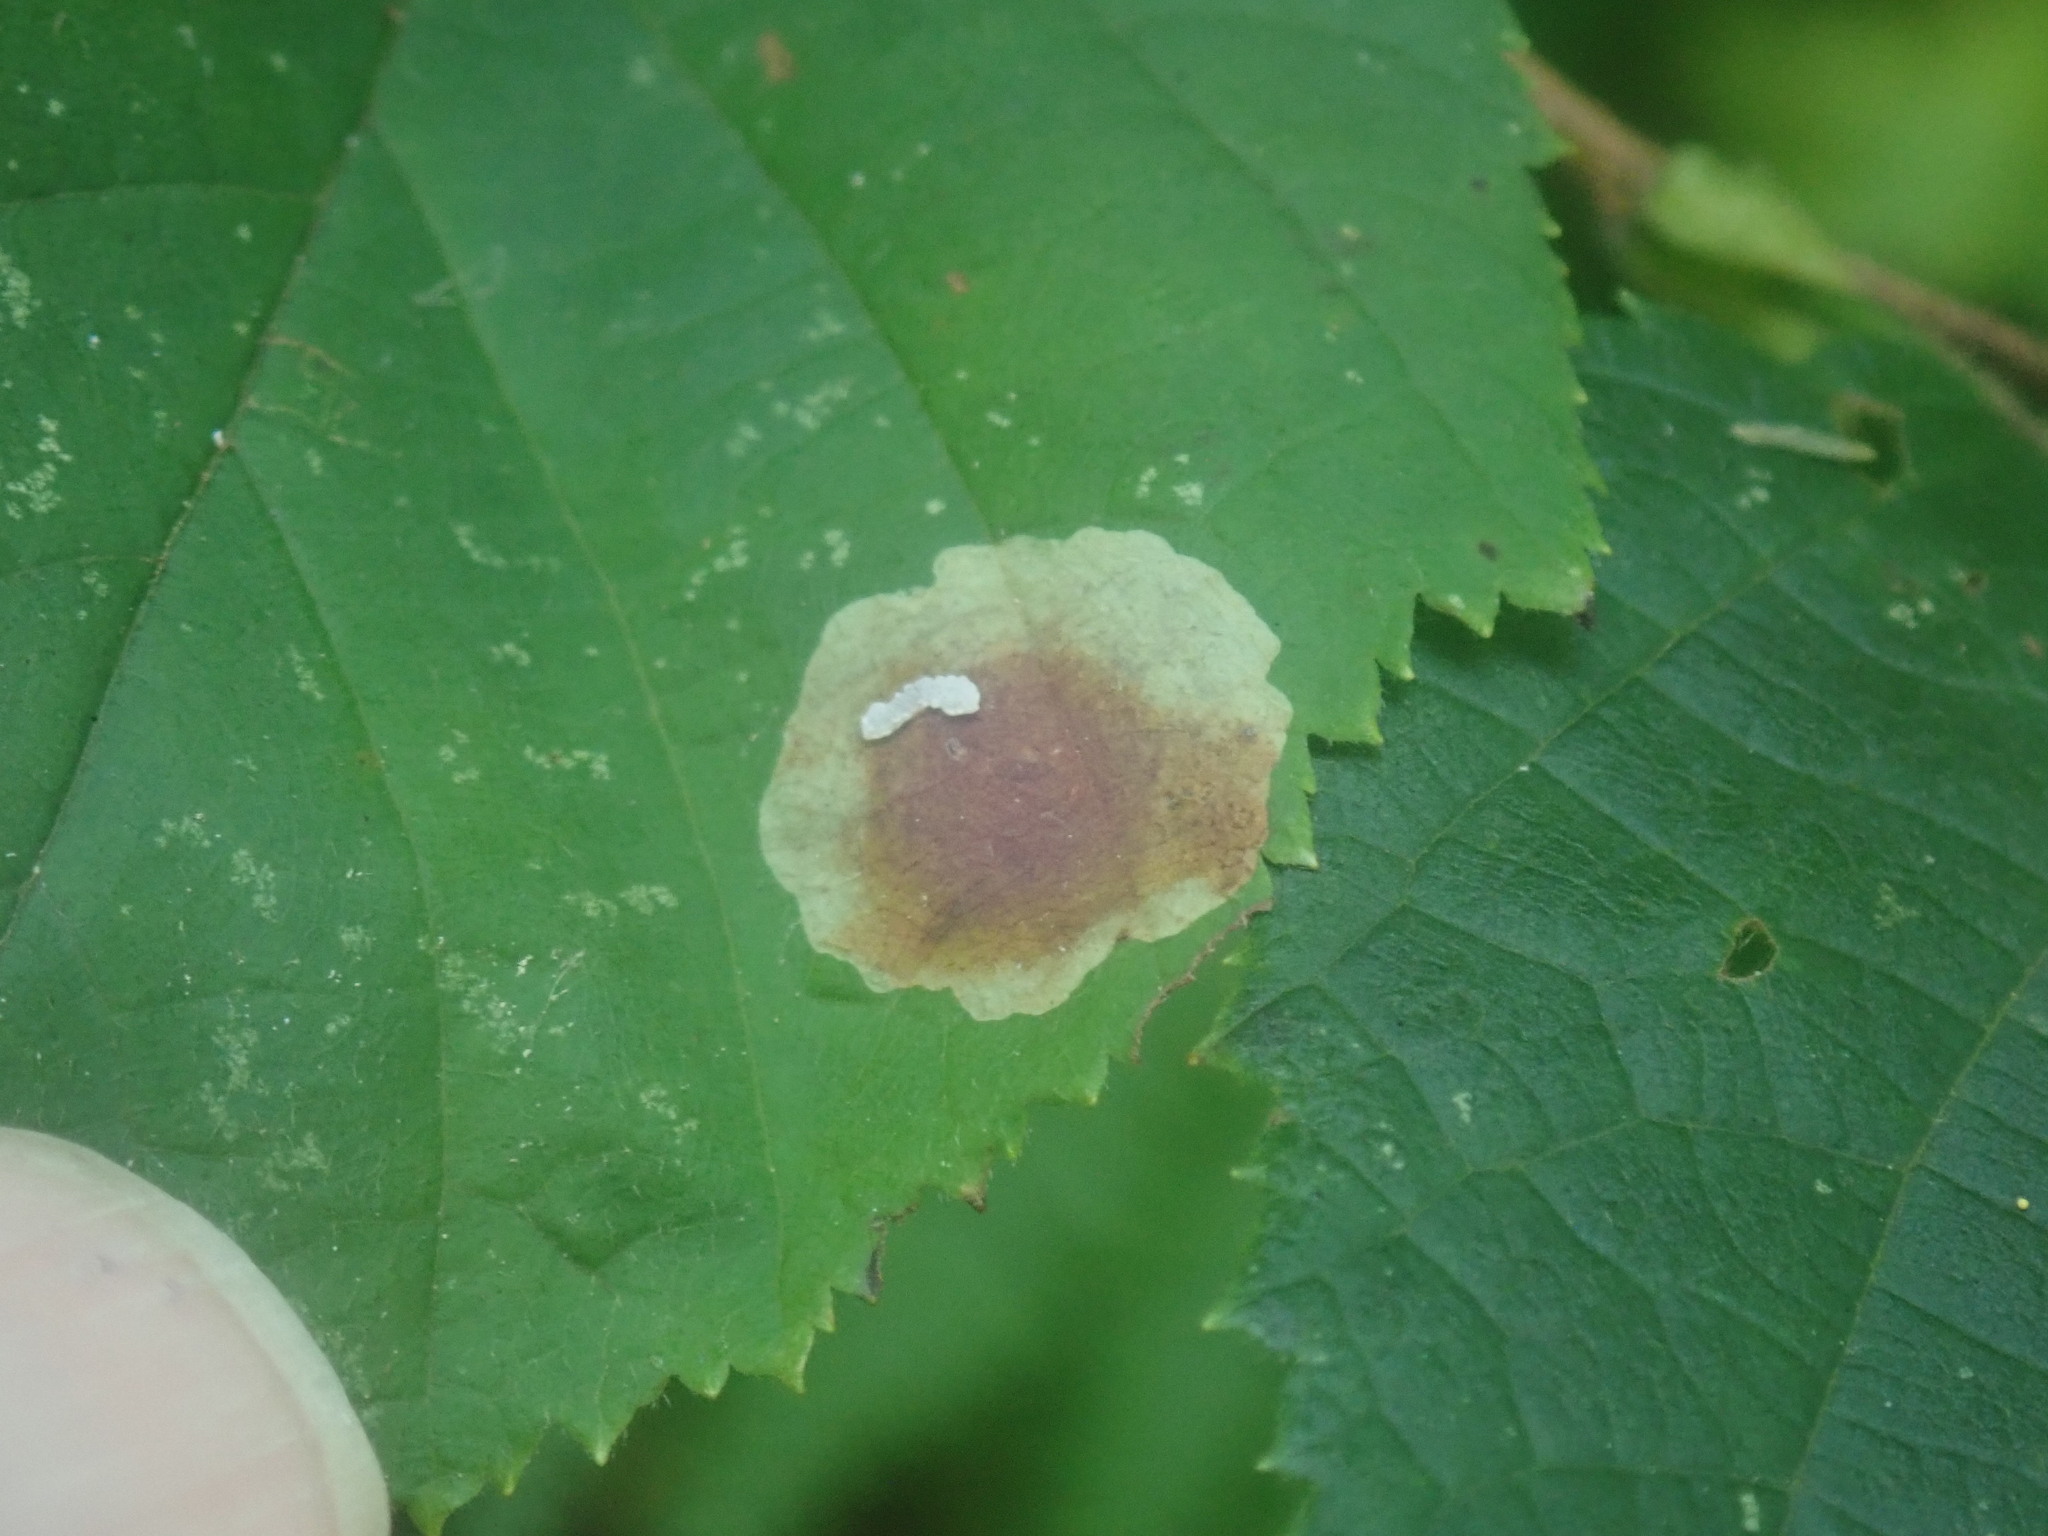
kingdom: Animalia
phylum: Arthropoda
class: Insecta
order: Lepidoptera
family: Gracillariidae
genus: Cameraria
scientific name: Cameraria corylisella
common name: Hazel blotchminer
